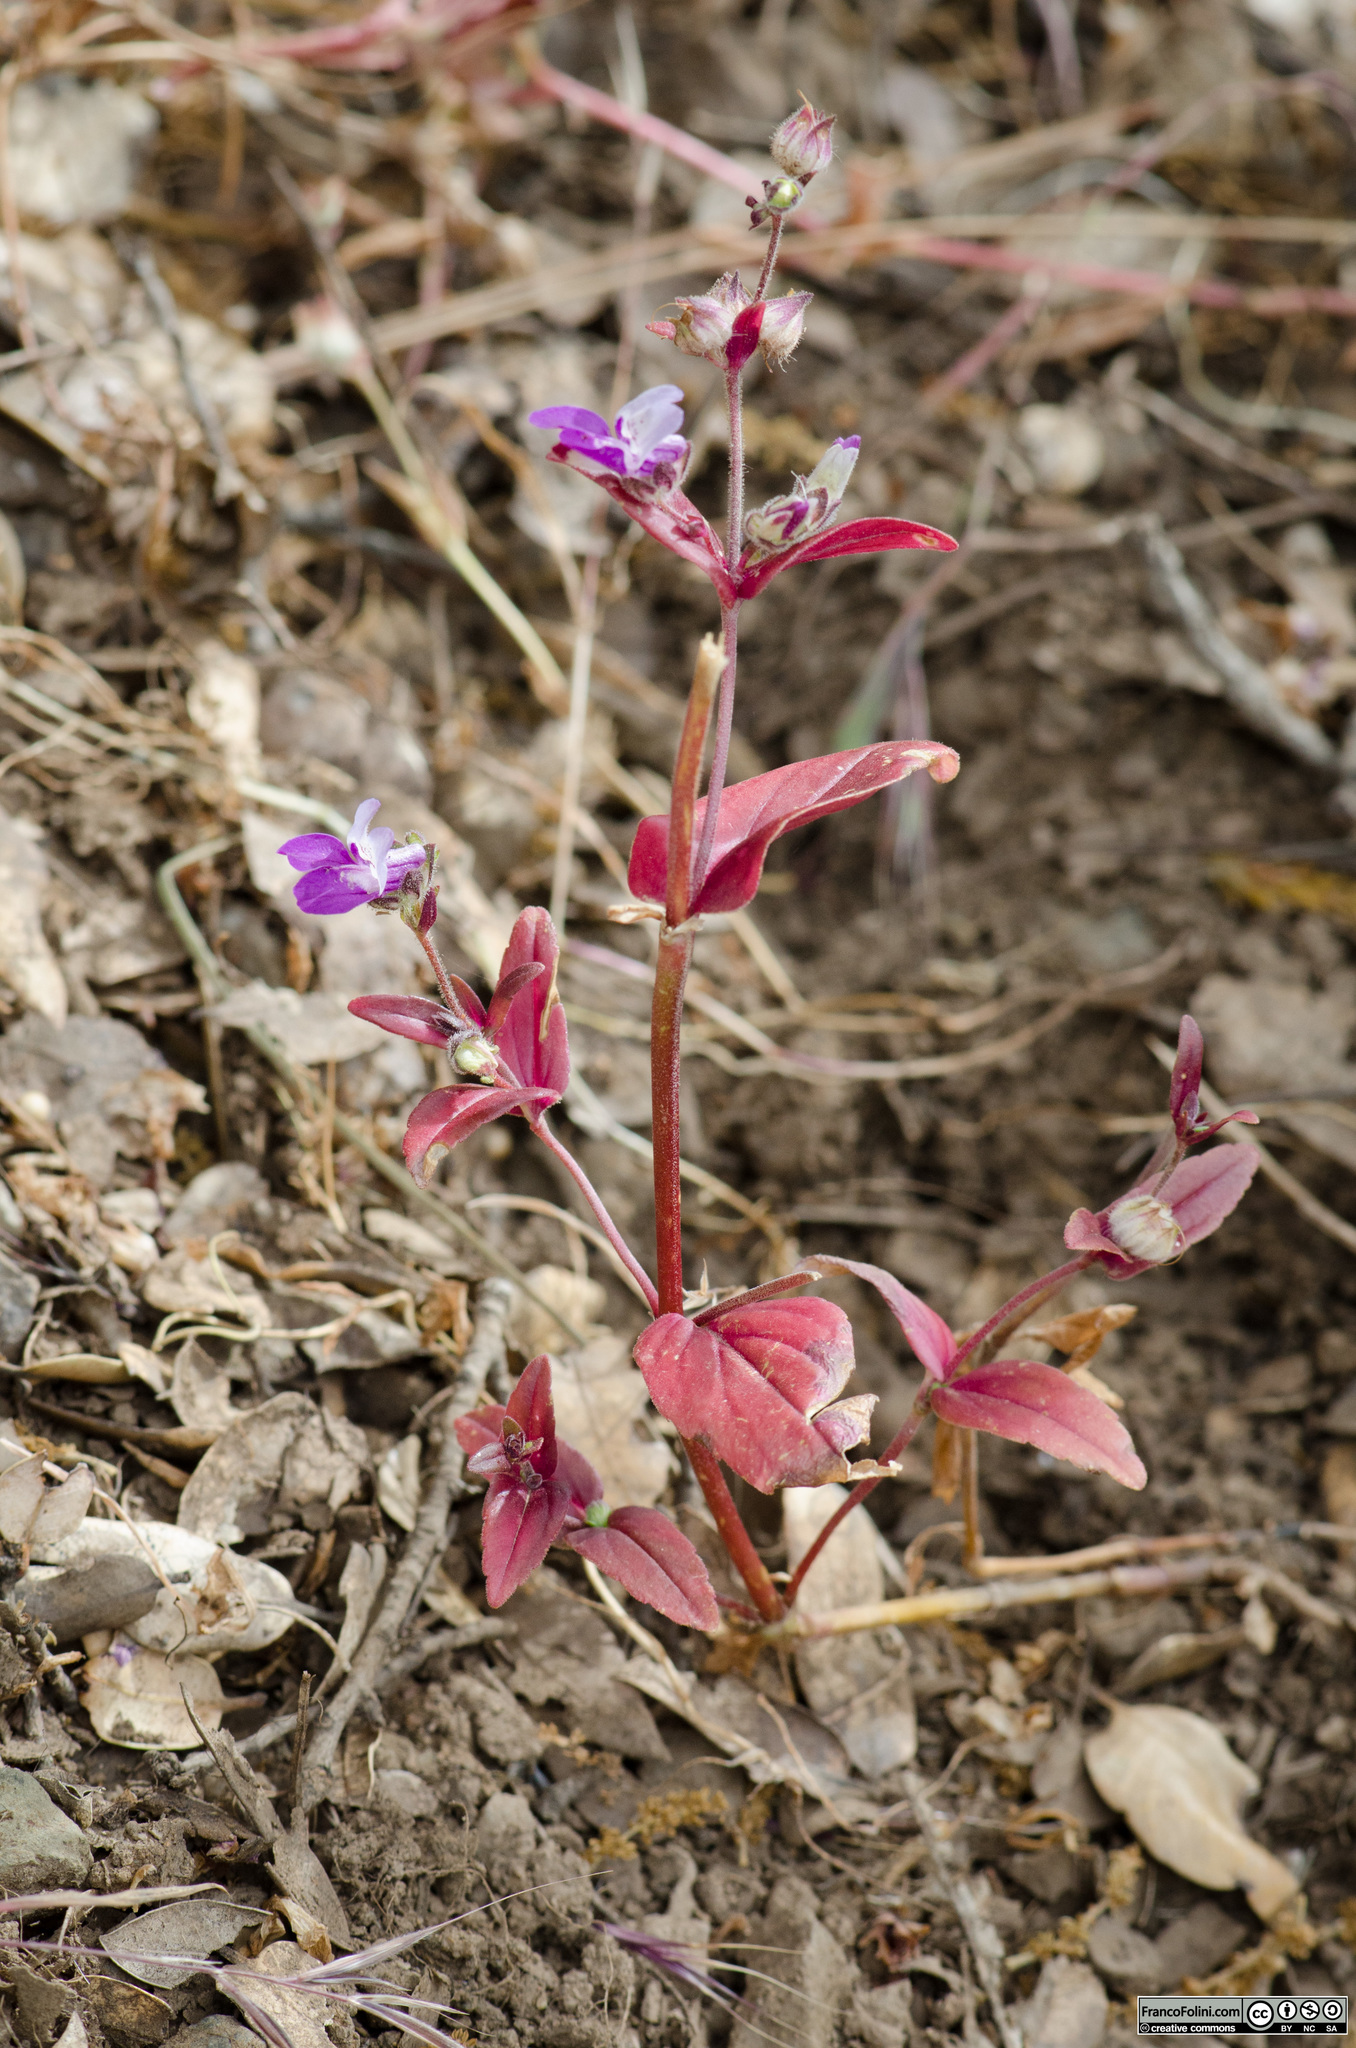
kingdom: Plantae
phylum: Tracheophyta
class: Magnoliopsida
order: Lamiales
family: Plantaginaceae
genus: Collinsia
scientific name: Collinsia tinctoria
